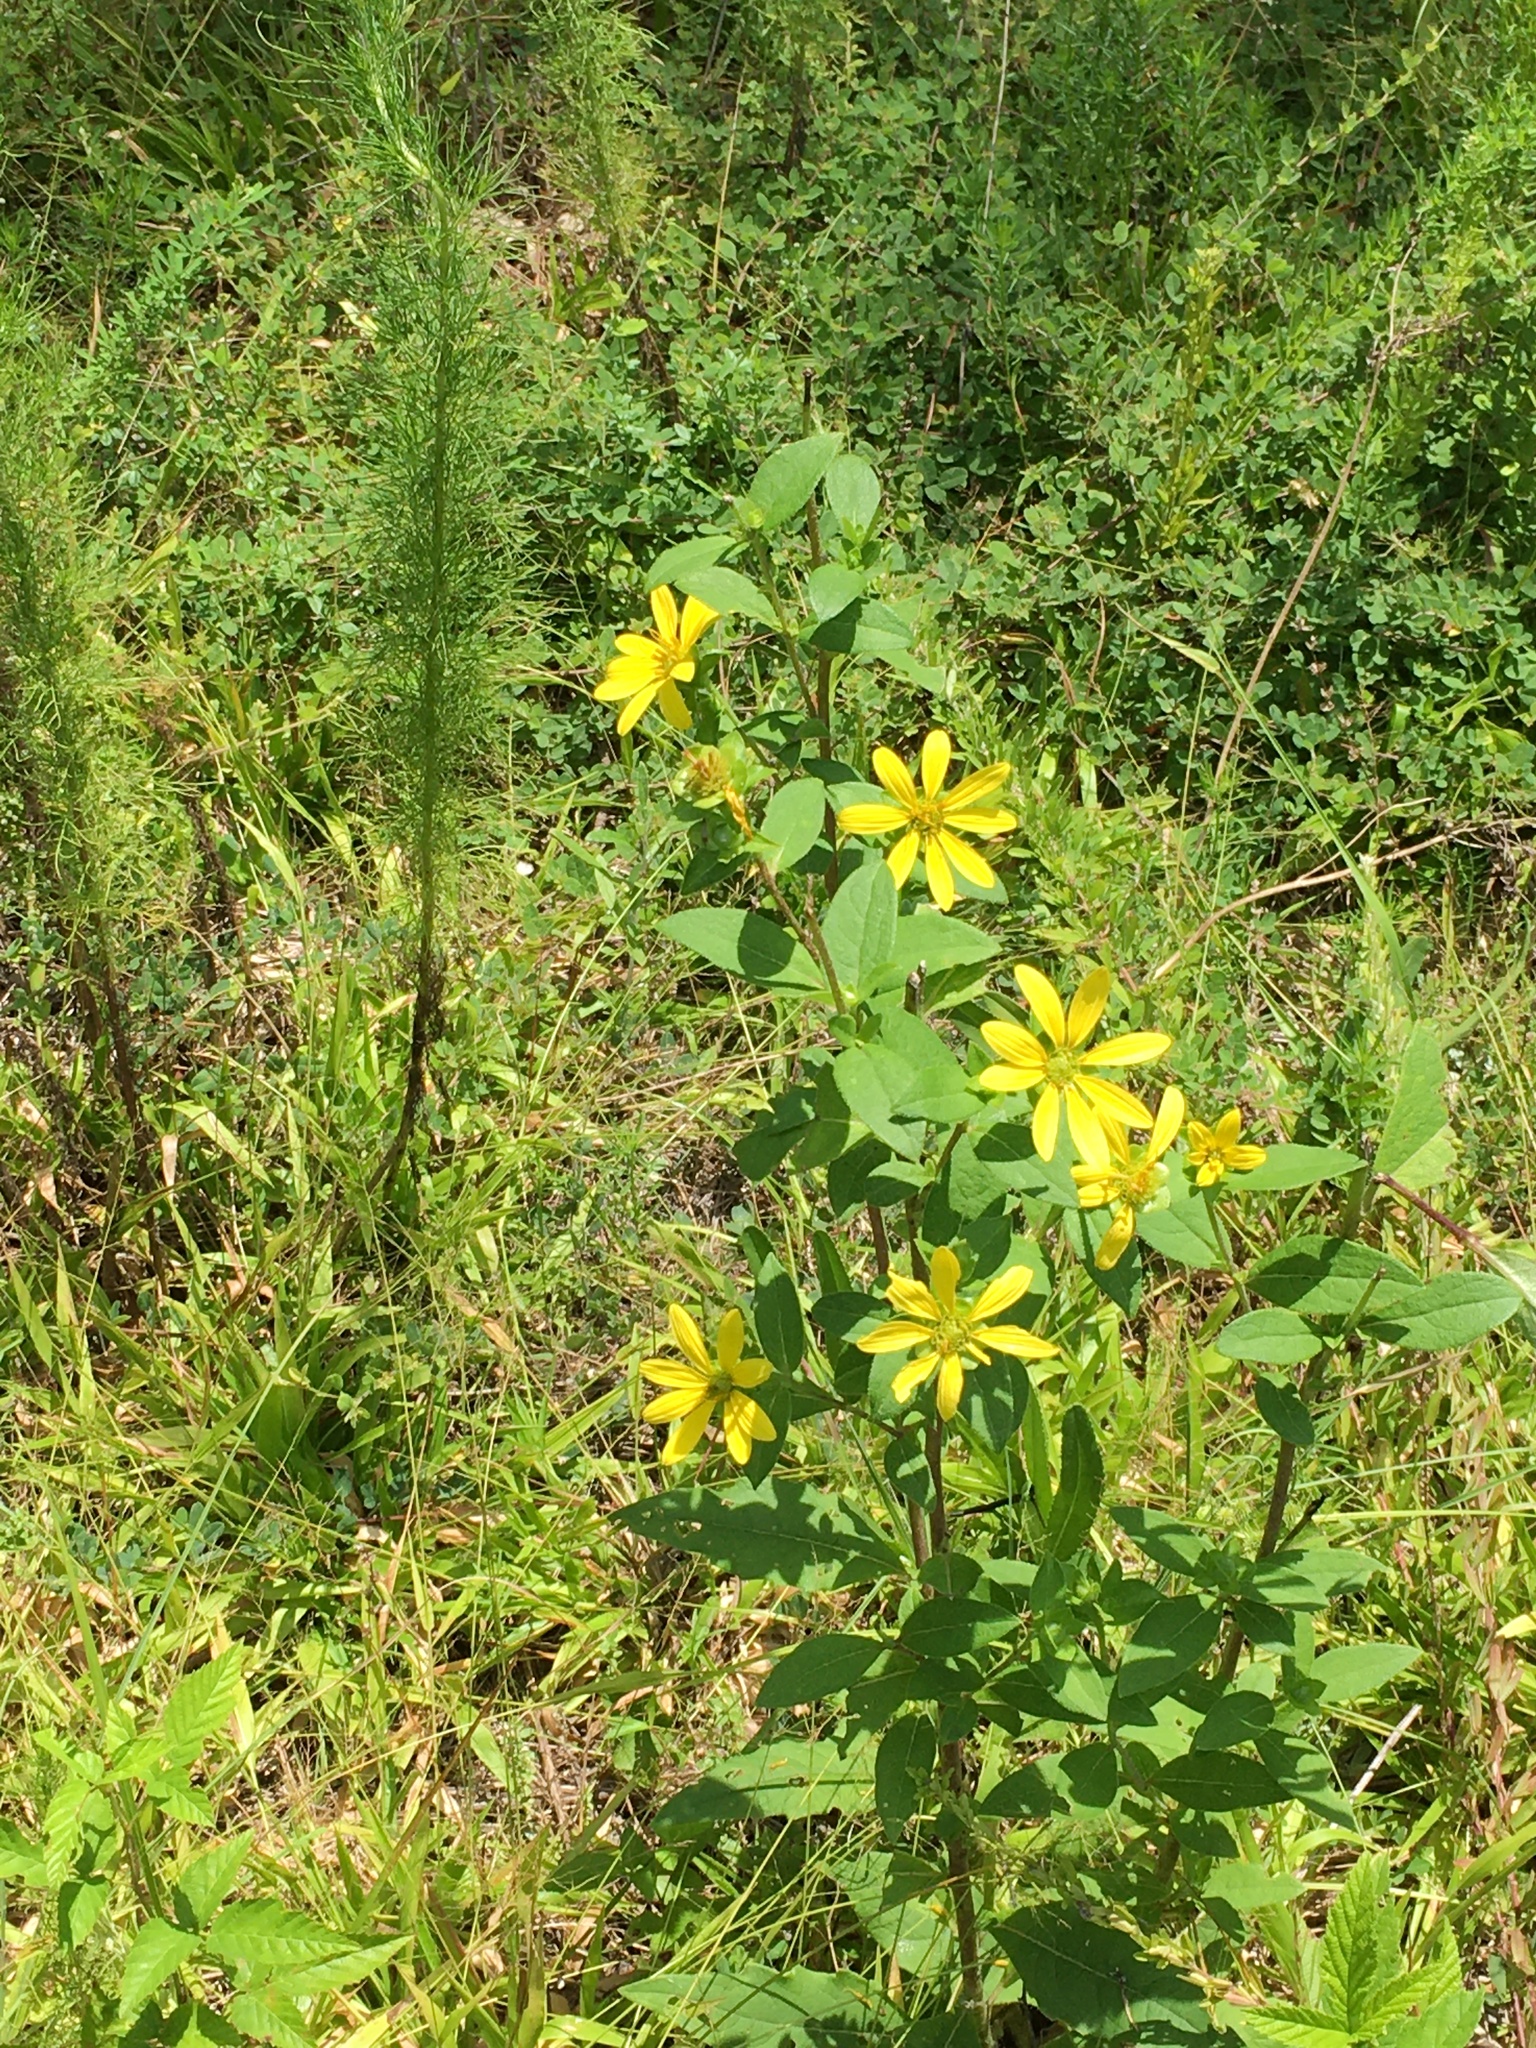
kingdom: Plantae
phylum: Tracheophyta
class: Magnoliopsida
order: Asterales
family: Asteraceae
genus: Silphium
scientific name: Silphium asteriscus
